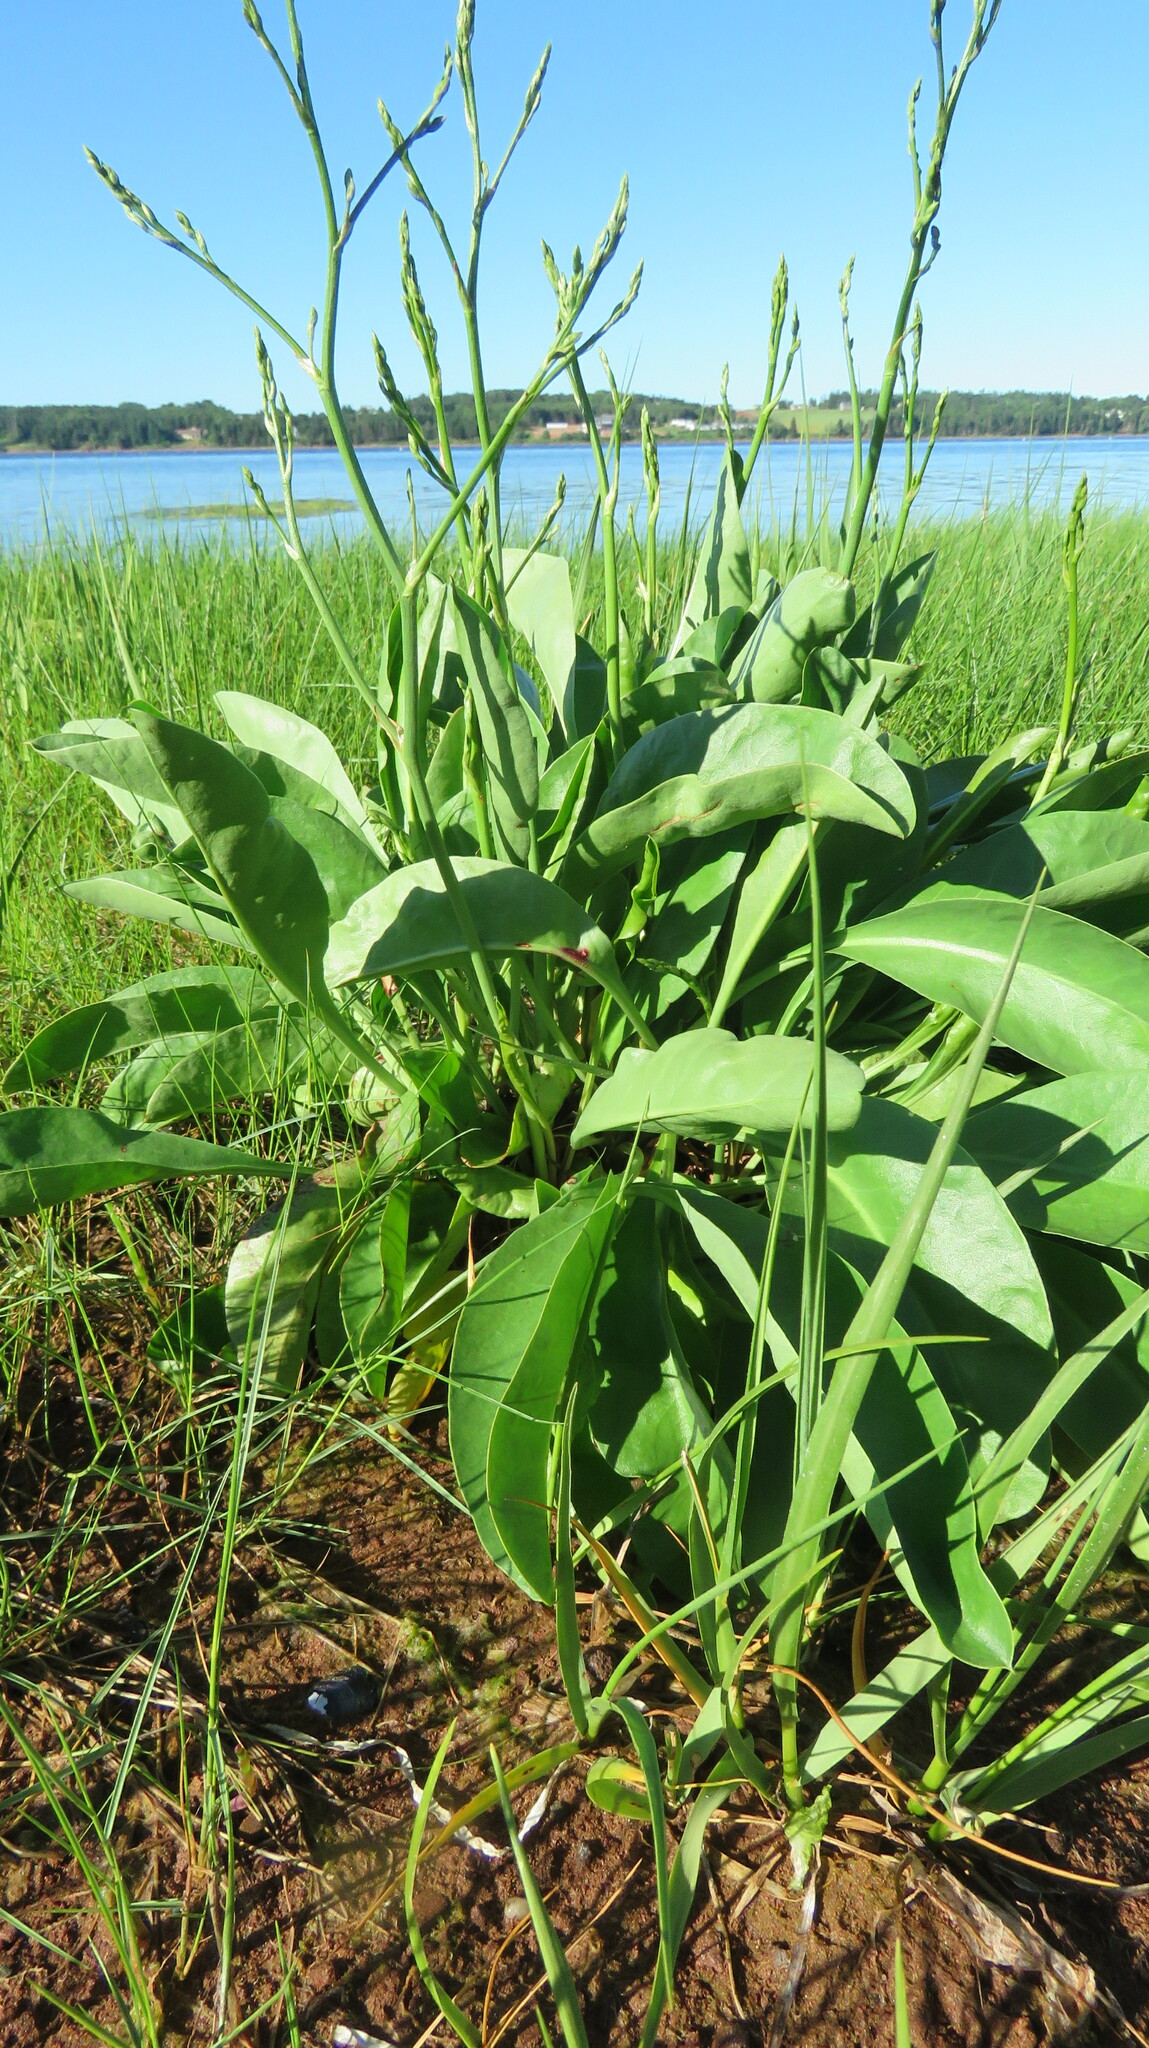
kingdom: Plantae
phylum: Tracheophyta
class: Magnoliopsida
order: Caryophyllales
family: Plumbaginaceae
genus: Limonium
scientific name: Limonium carolinianum
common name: Carolina sea lavender
